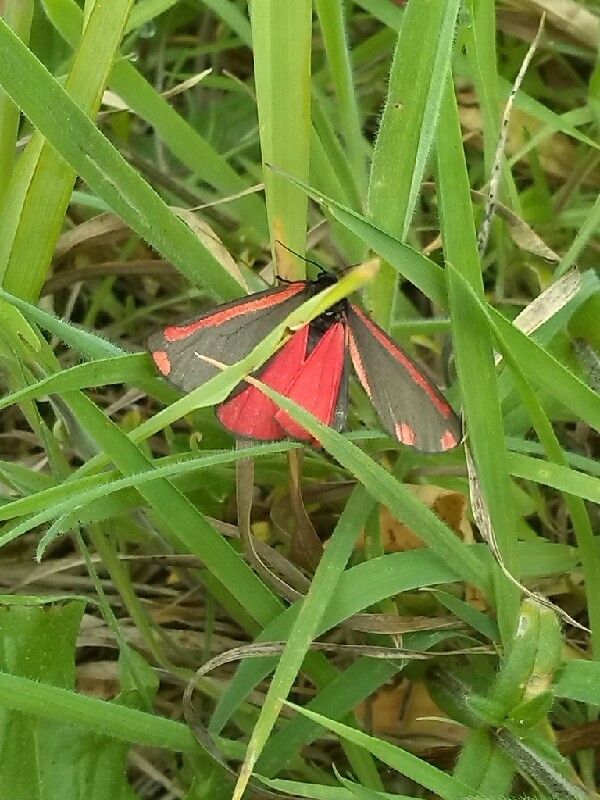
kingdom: Animalia
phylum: Arthropoda
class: Insecta
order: Lepidoptera
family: Erebidae
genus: Tyria
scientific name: Tyria jacobaeae
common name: Cinnabar
